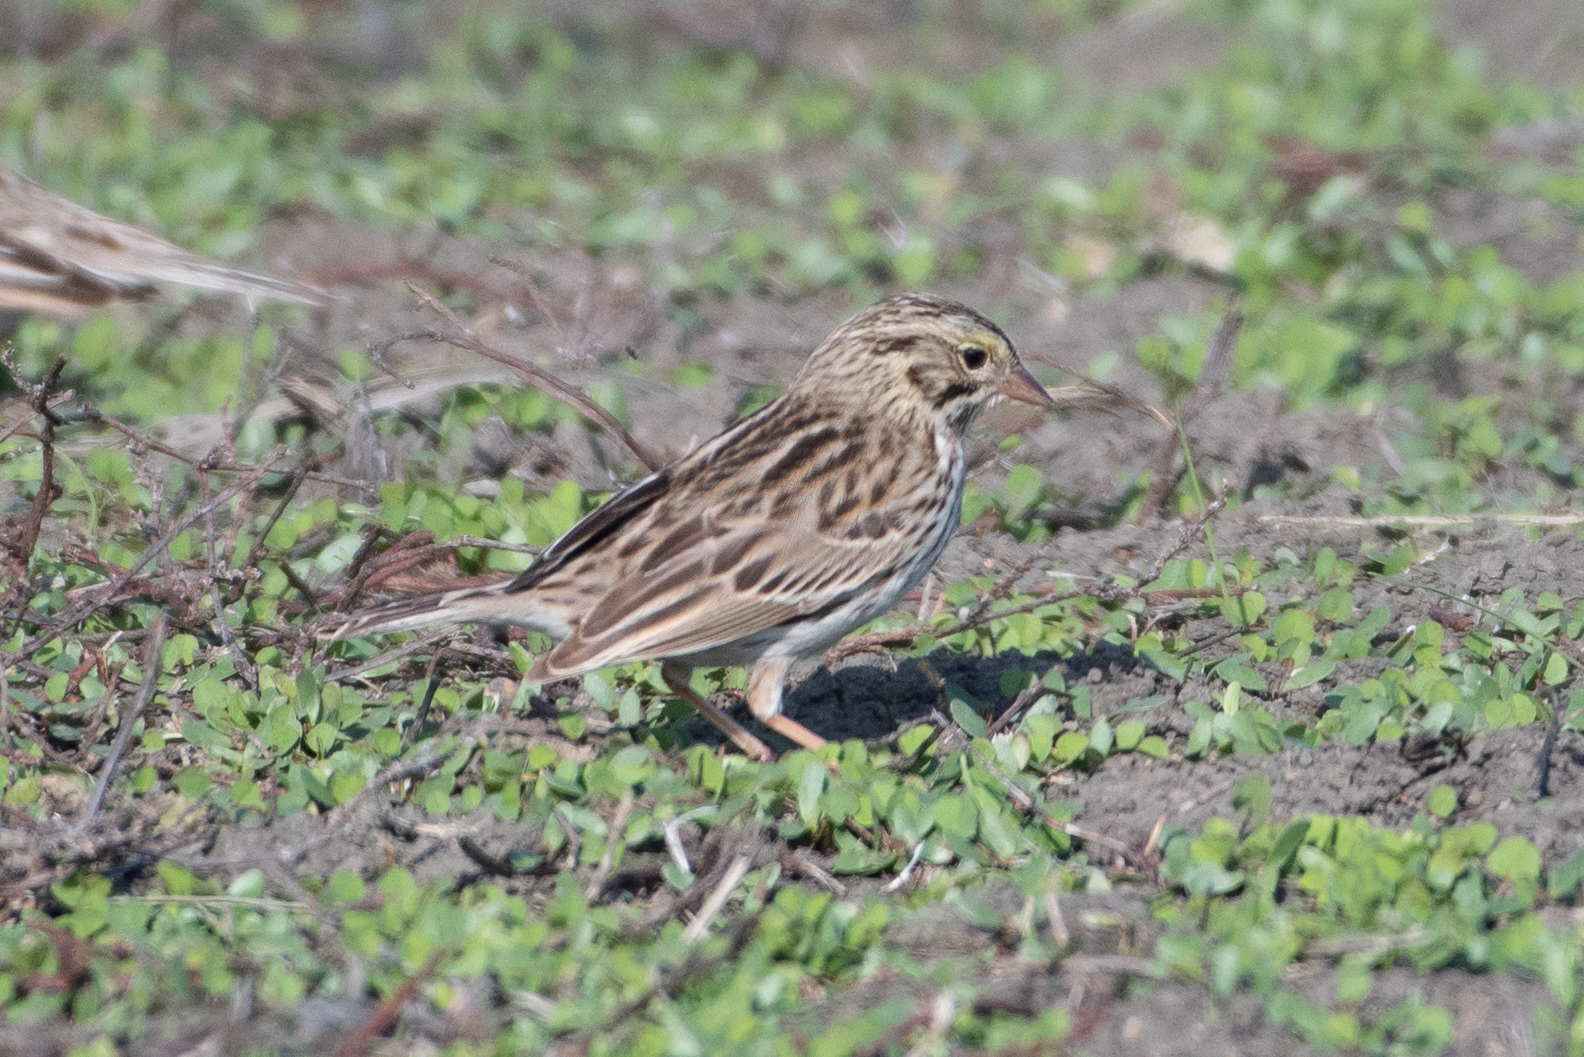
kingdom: Animalia
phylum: Chordata
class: Aves
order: Passeriformes
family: Passerellidae
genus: Passerculus
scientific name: Passerculus sandwichensis
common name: Savannah sparrow
